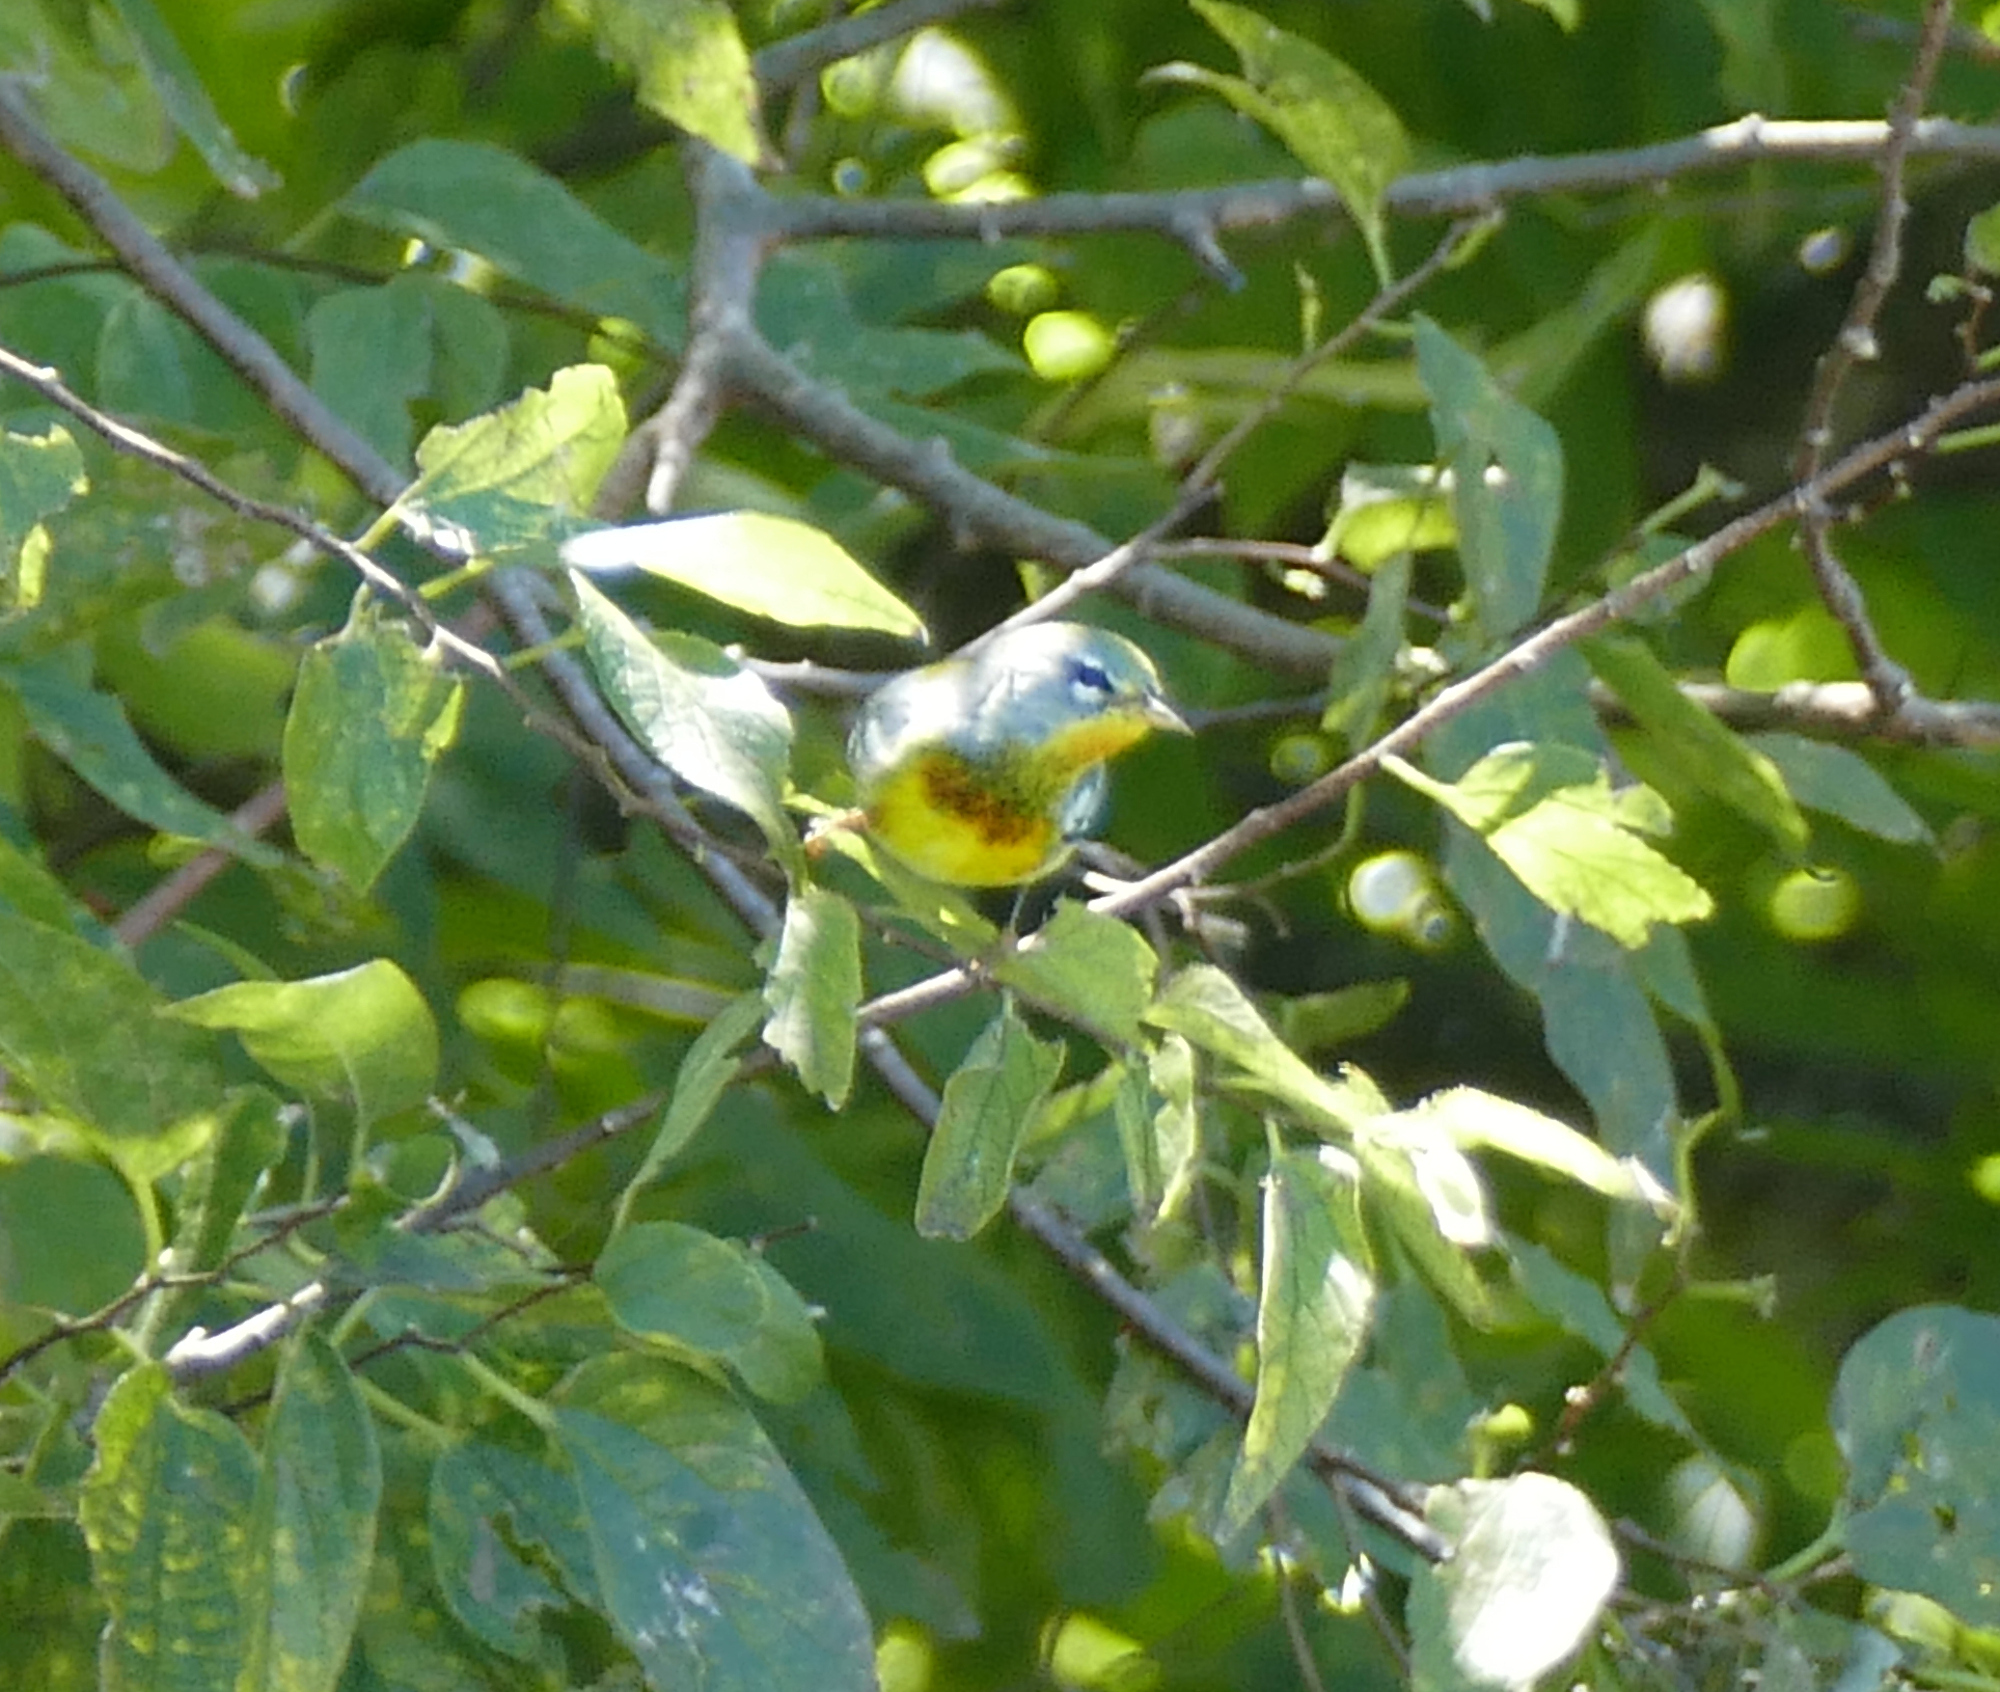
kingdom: Animalia
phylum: Chordata
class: Aves
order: Passeriformes
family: Parulidae
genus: Setophaga
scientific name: Setophaga americana
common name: Northern parula
